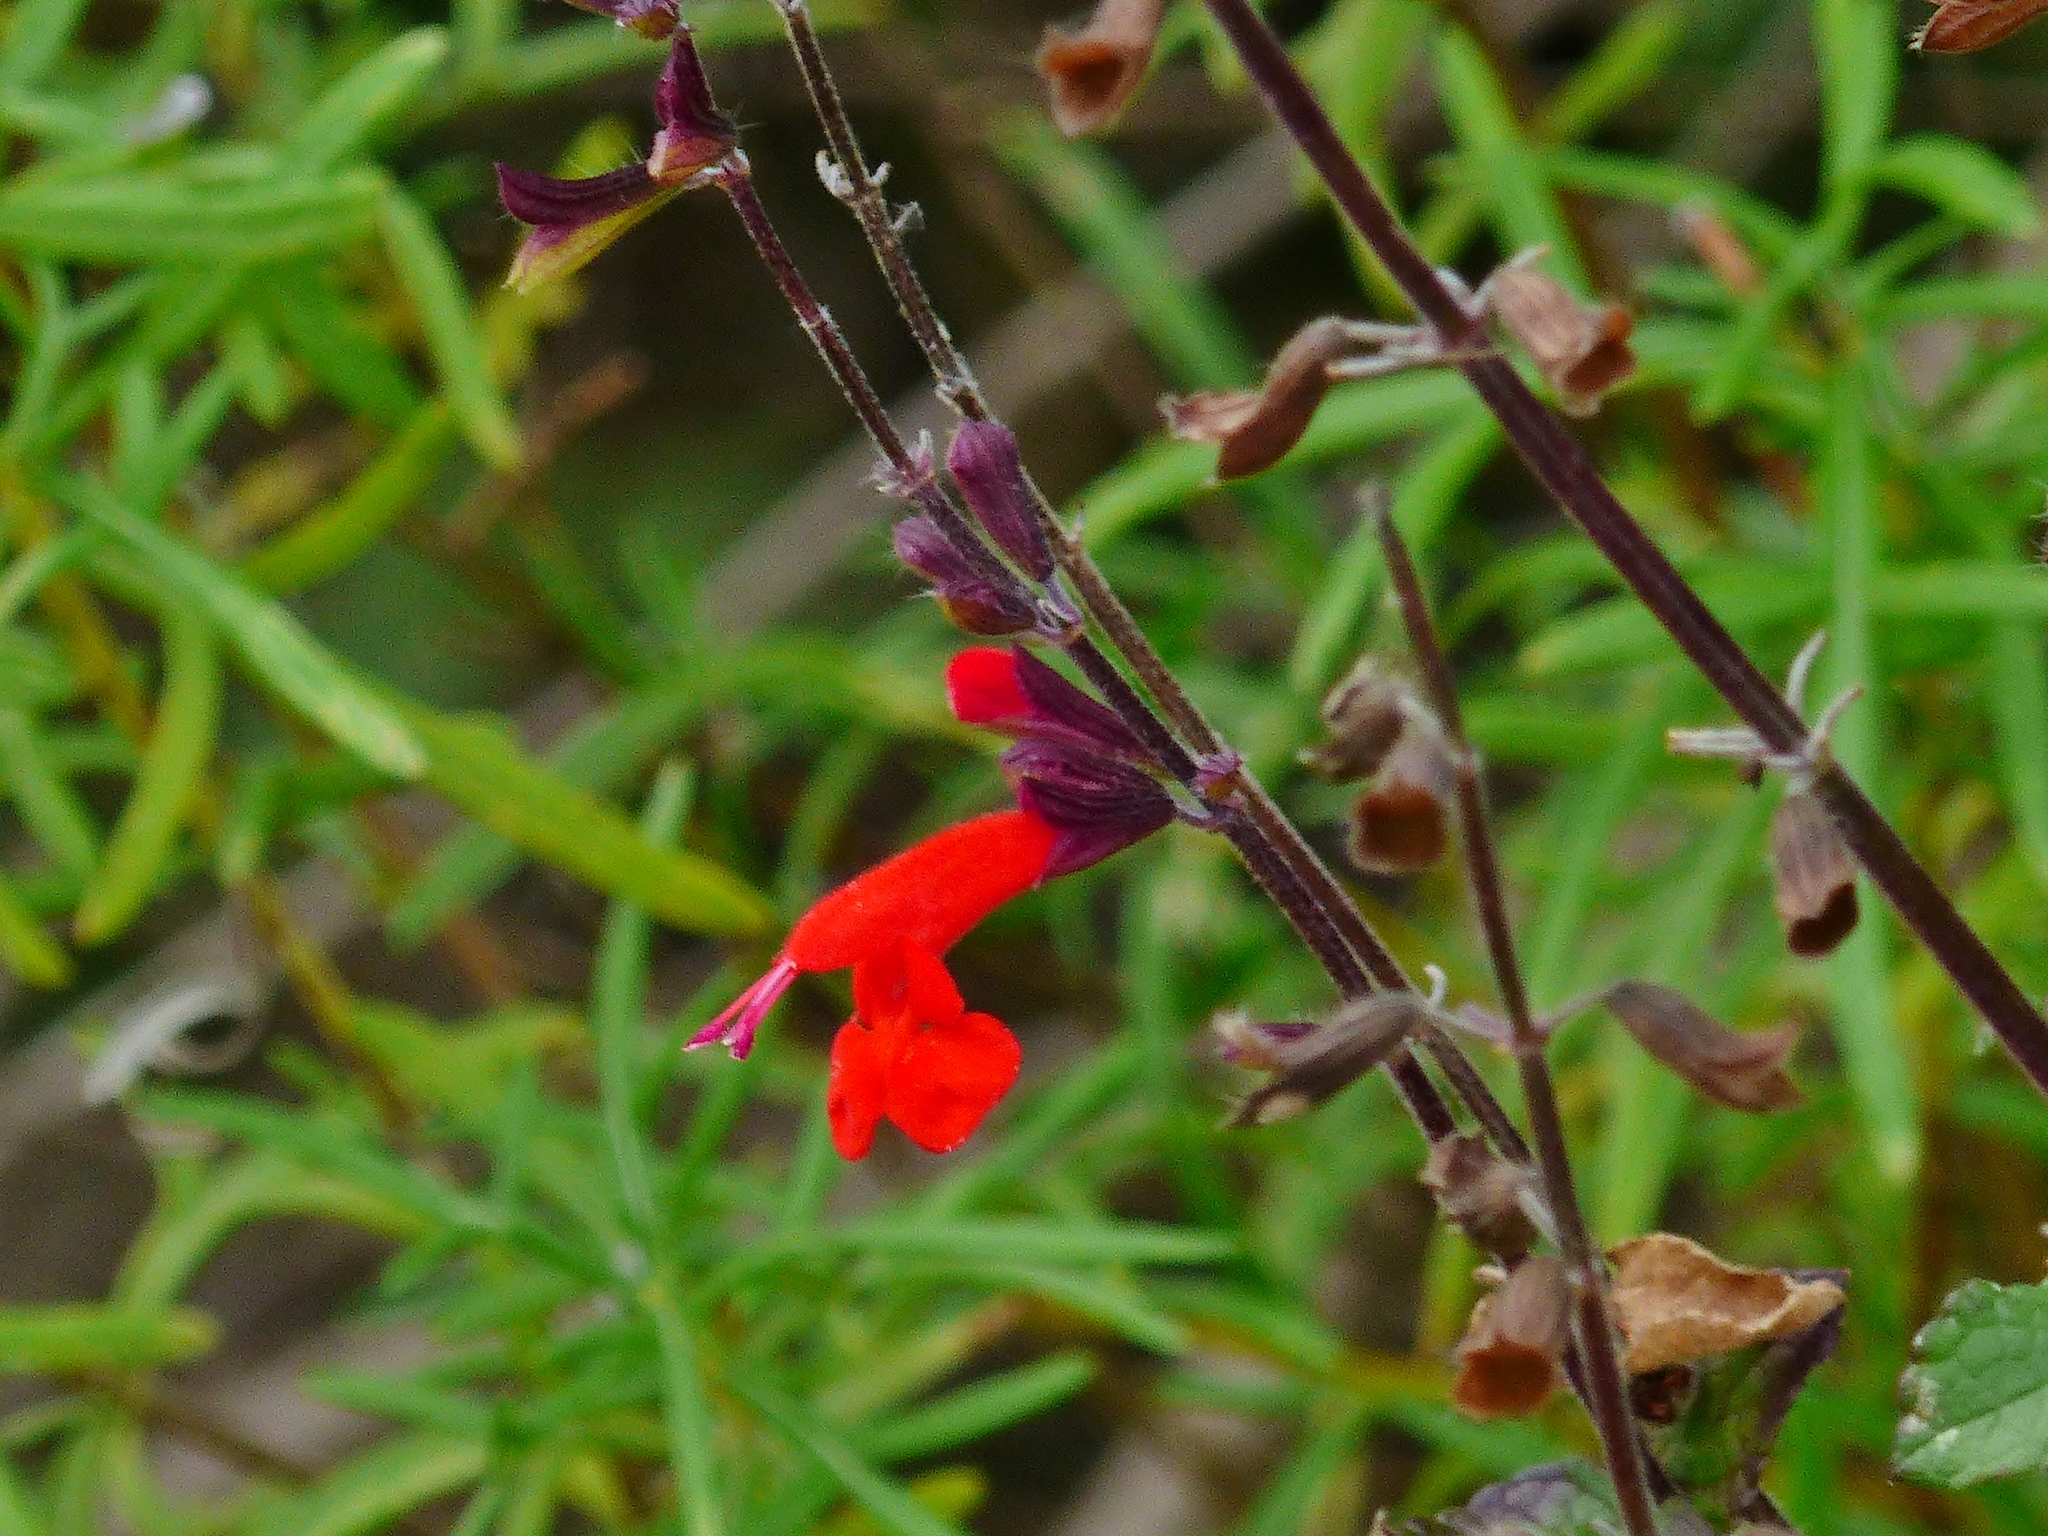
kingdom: Plantae
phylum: Tracheophyta
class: Magnoliopsida
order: Lamiales
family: Lamiaceae
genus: Salvia
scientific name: Salvia coccinea
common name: Blood sage
